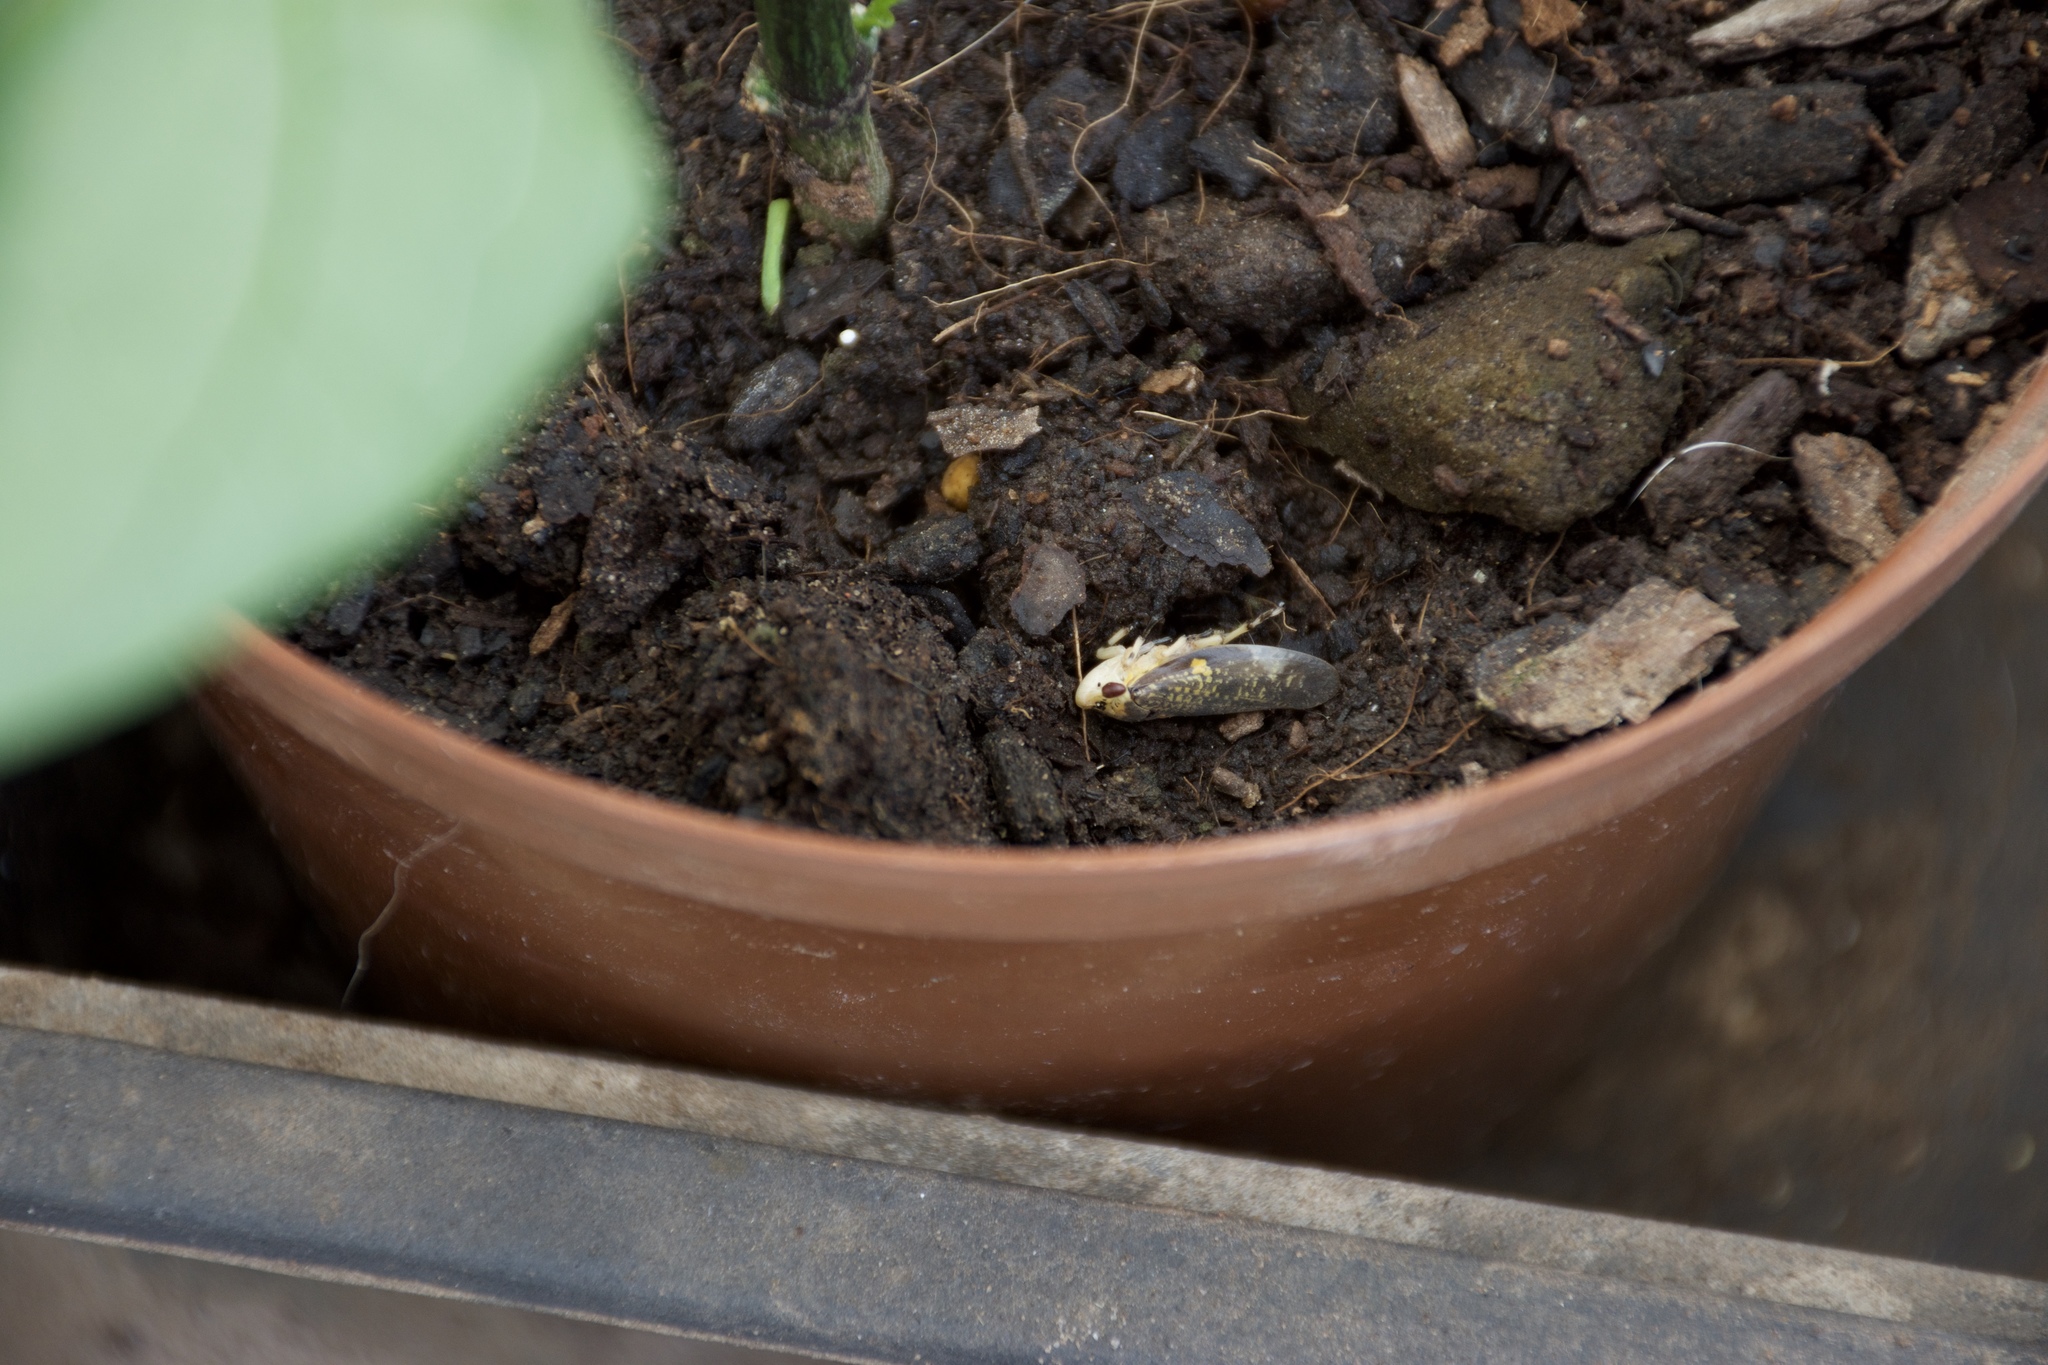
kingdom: Animalia
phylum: Arthropoda
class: Insecta
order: Hemiptera
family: Aphrophoridae
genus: Ptyelus
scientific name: Ptyelus grossus
